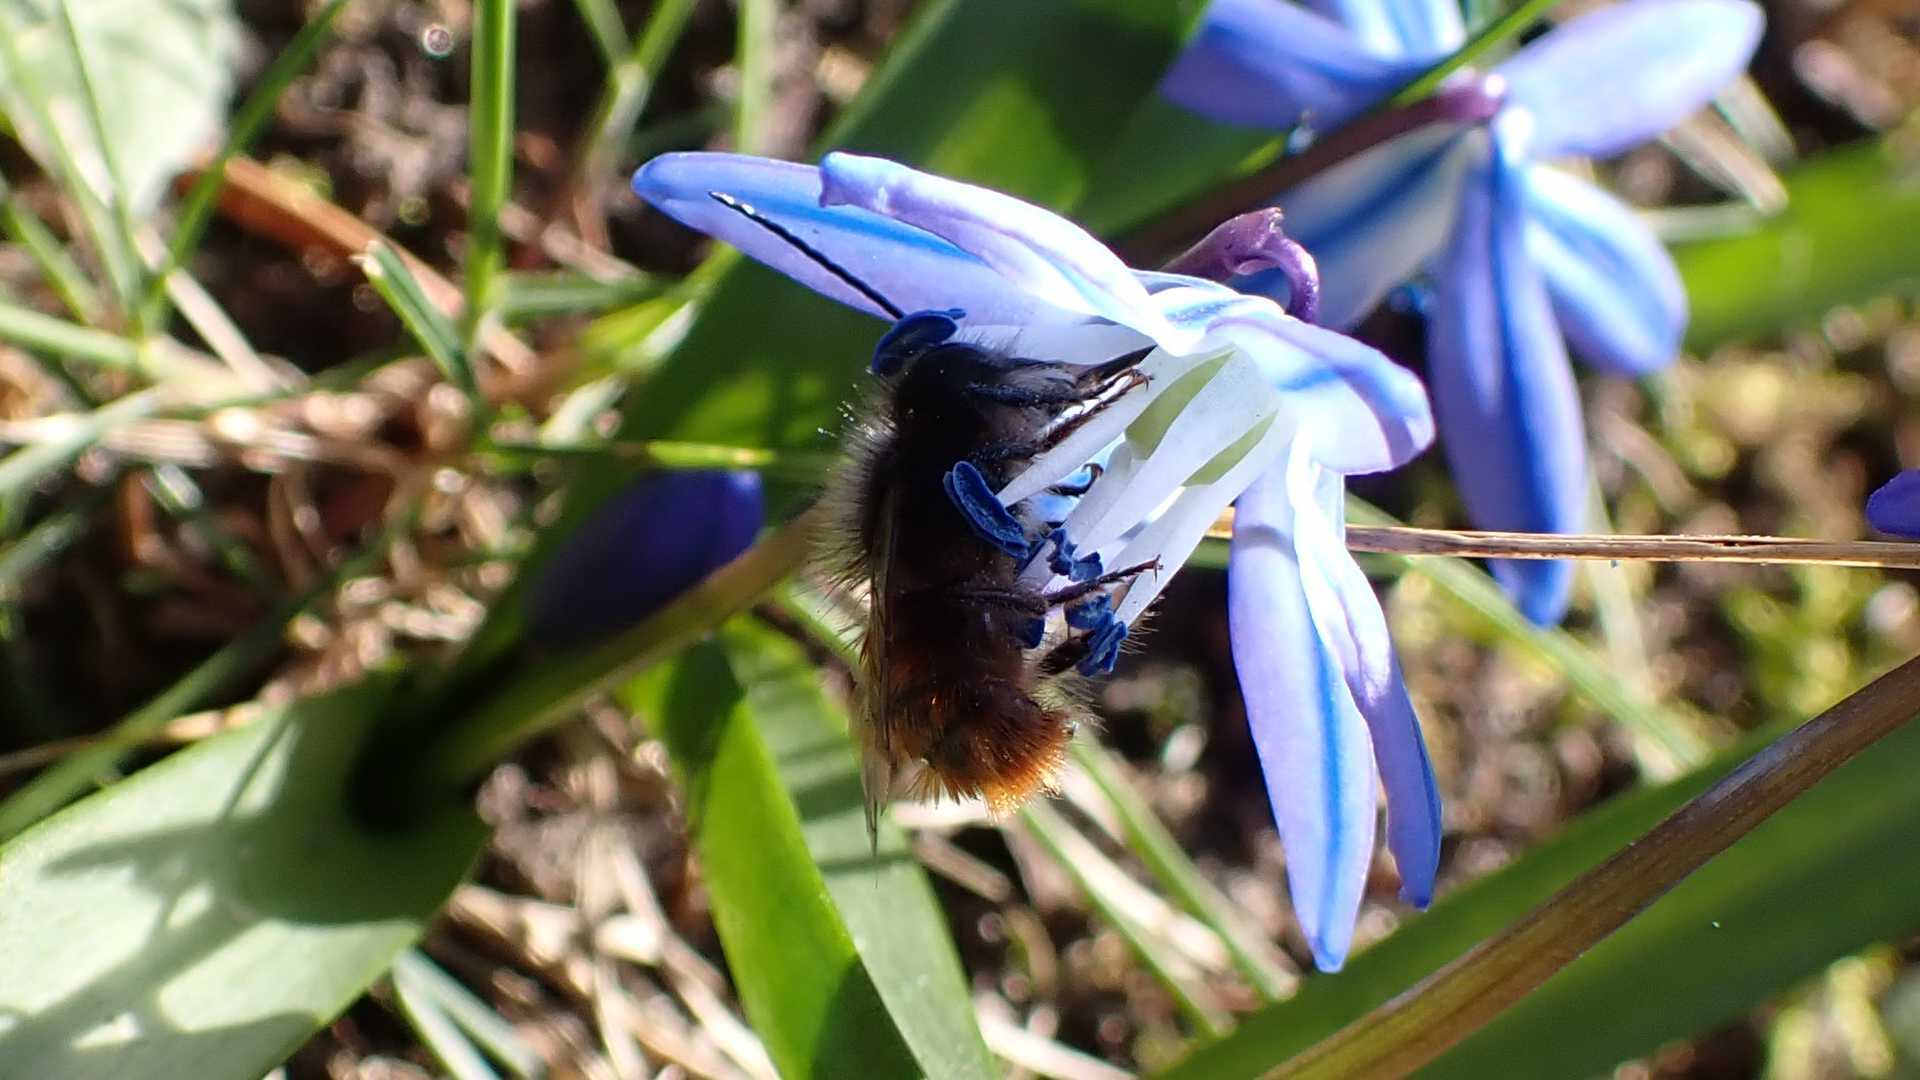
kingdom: Animalia
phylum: Arthropoda
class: Insecta
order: Hymenoptera
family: Megachilidae
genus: Osmia
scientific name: Osmia cornuta
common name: Mason bee
